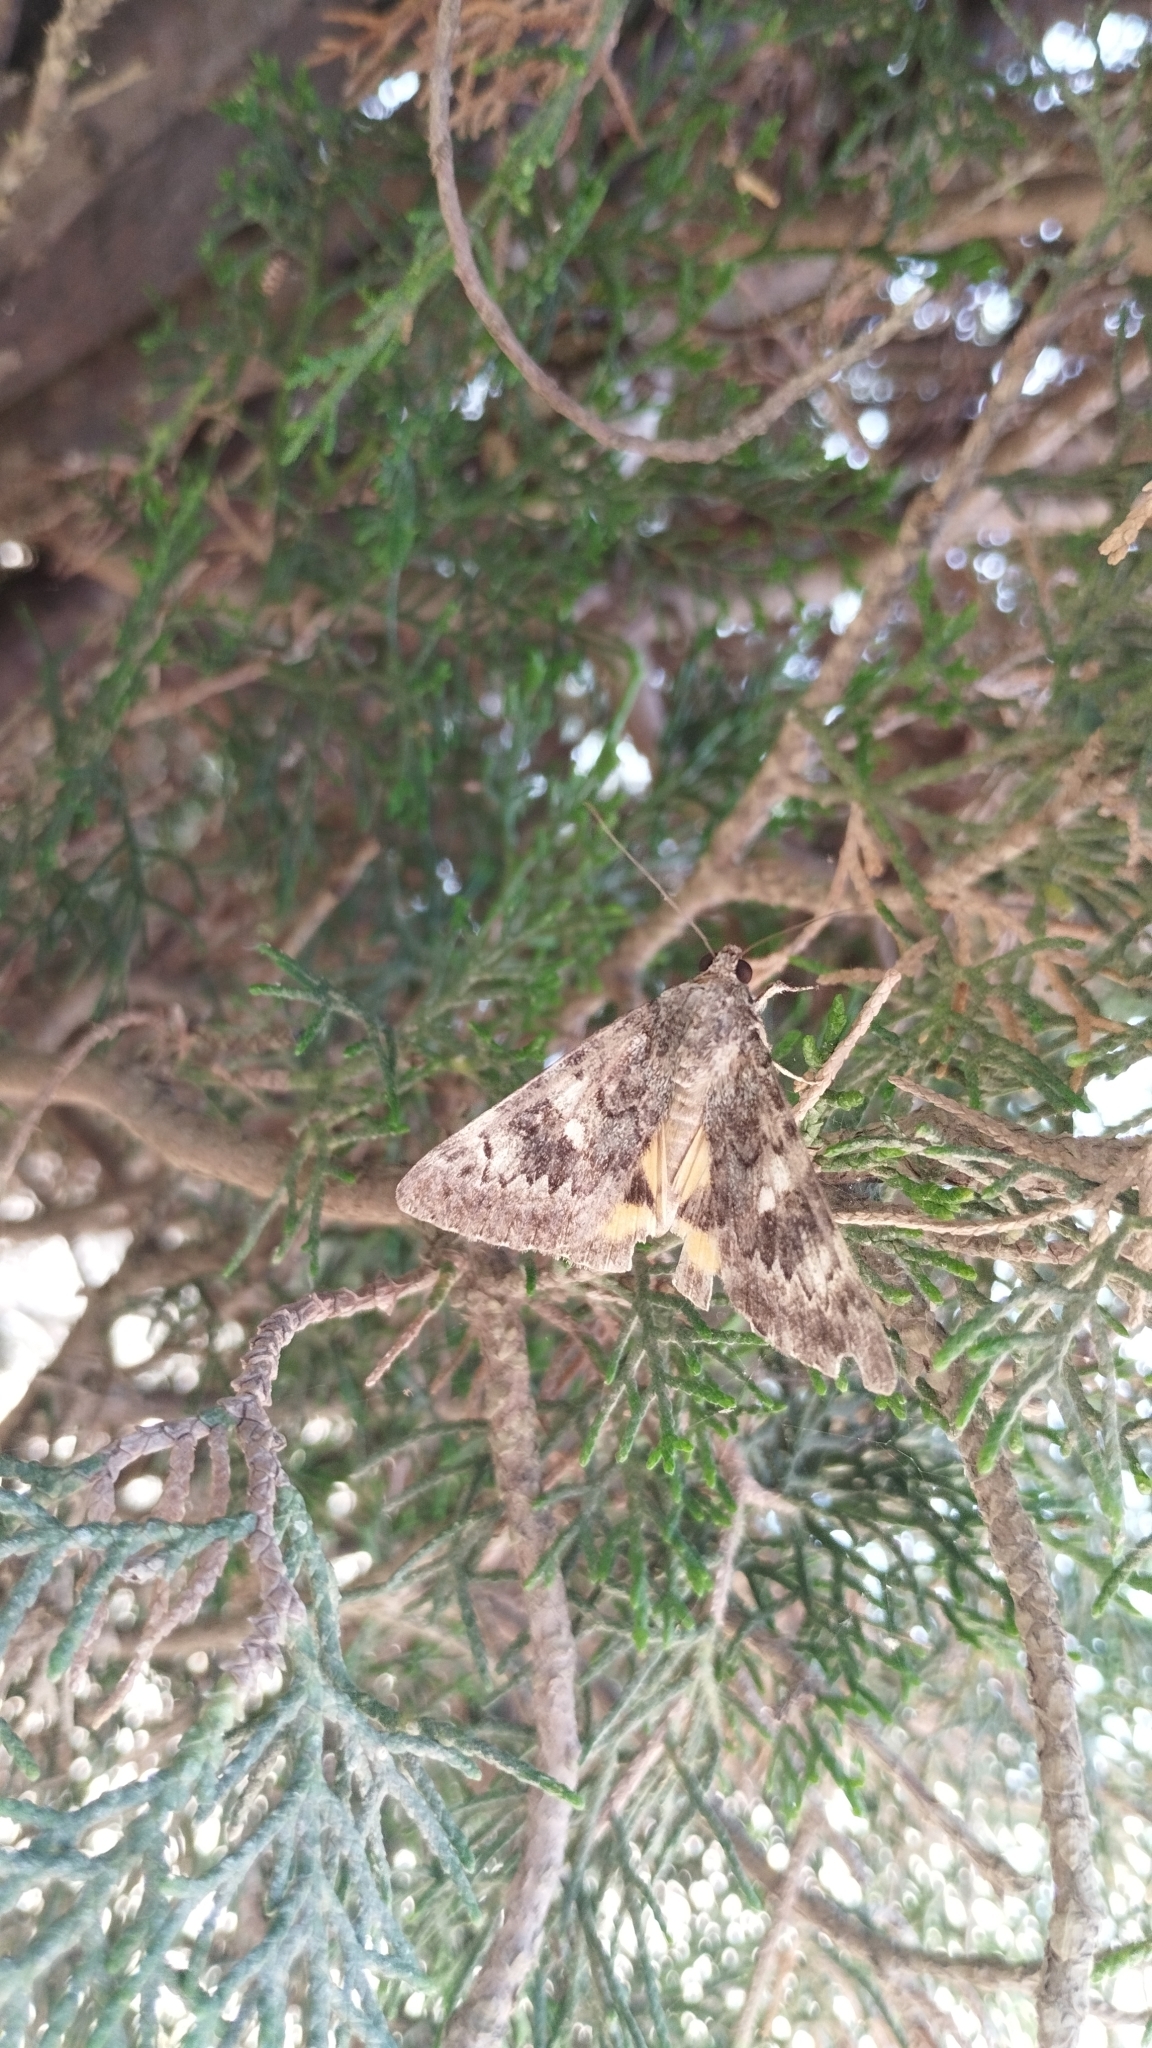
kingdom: Animalia
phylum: Arthropoda
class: Insecta
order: Lepidoptera
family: Erebidae
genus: Catocala
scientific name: Catocala nymphaea
